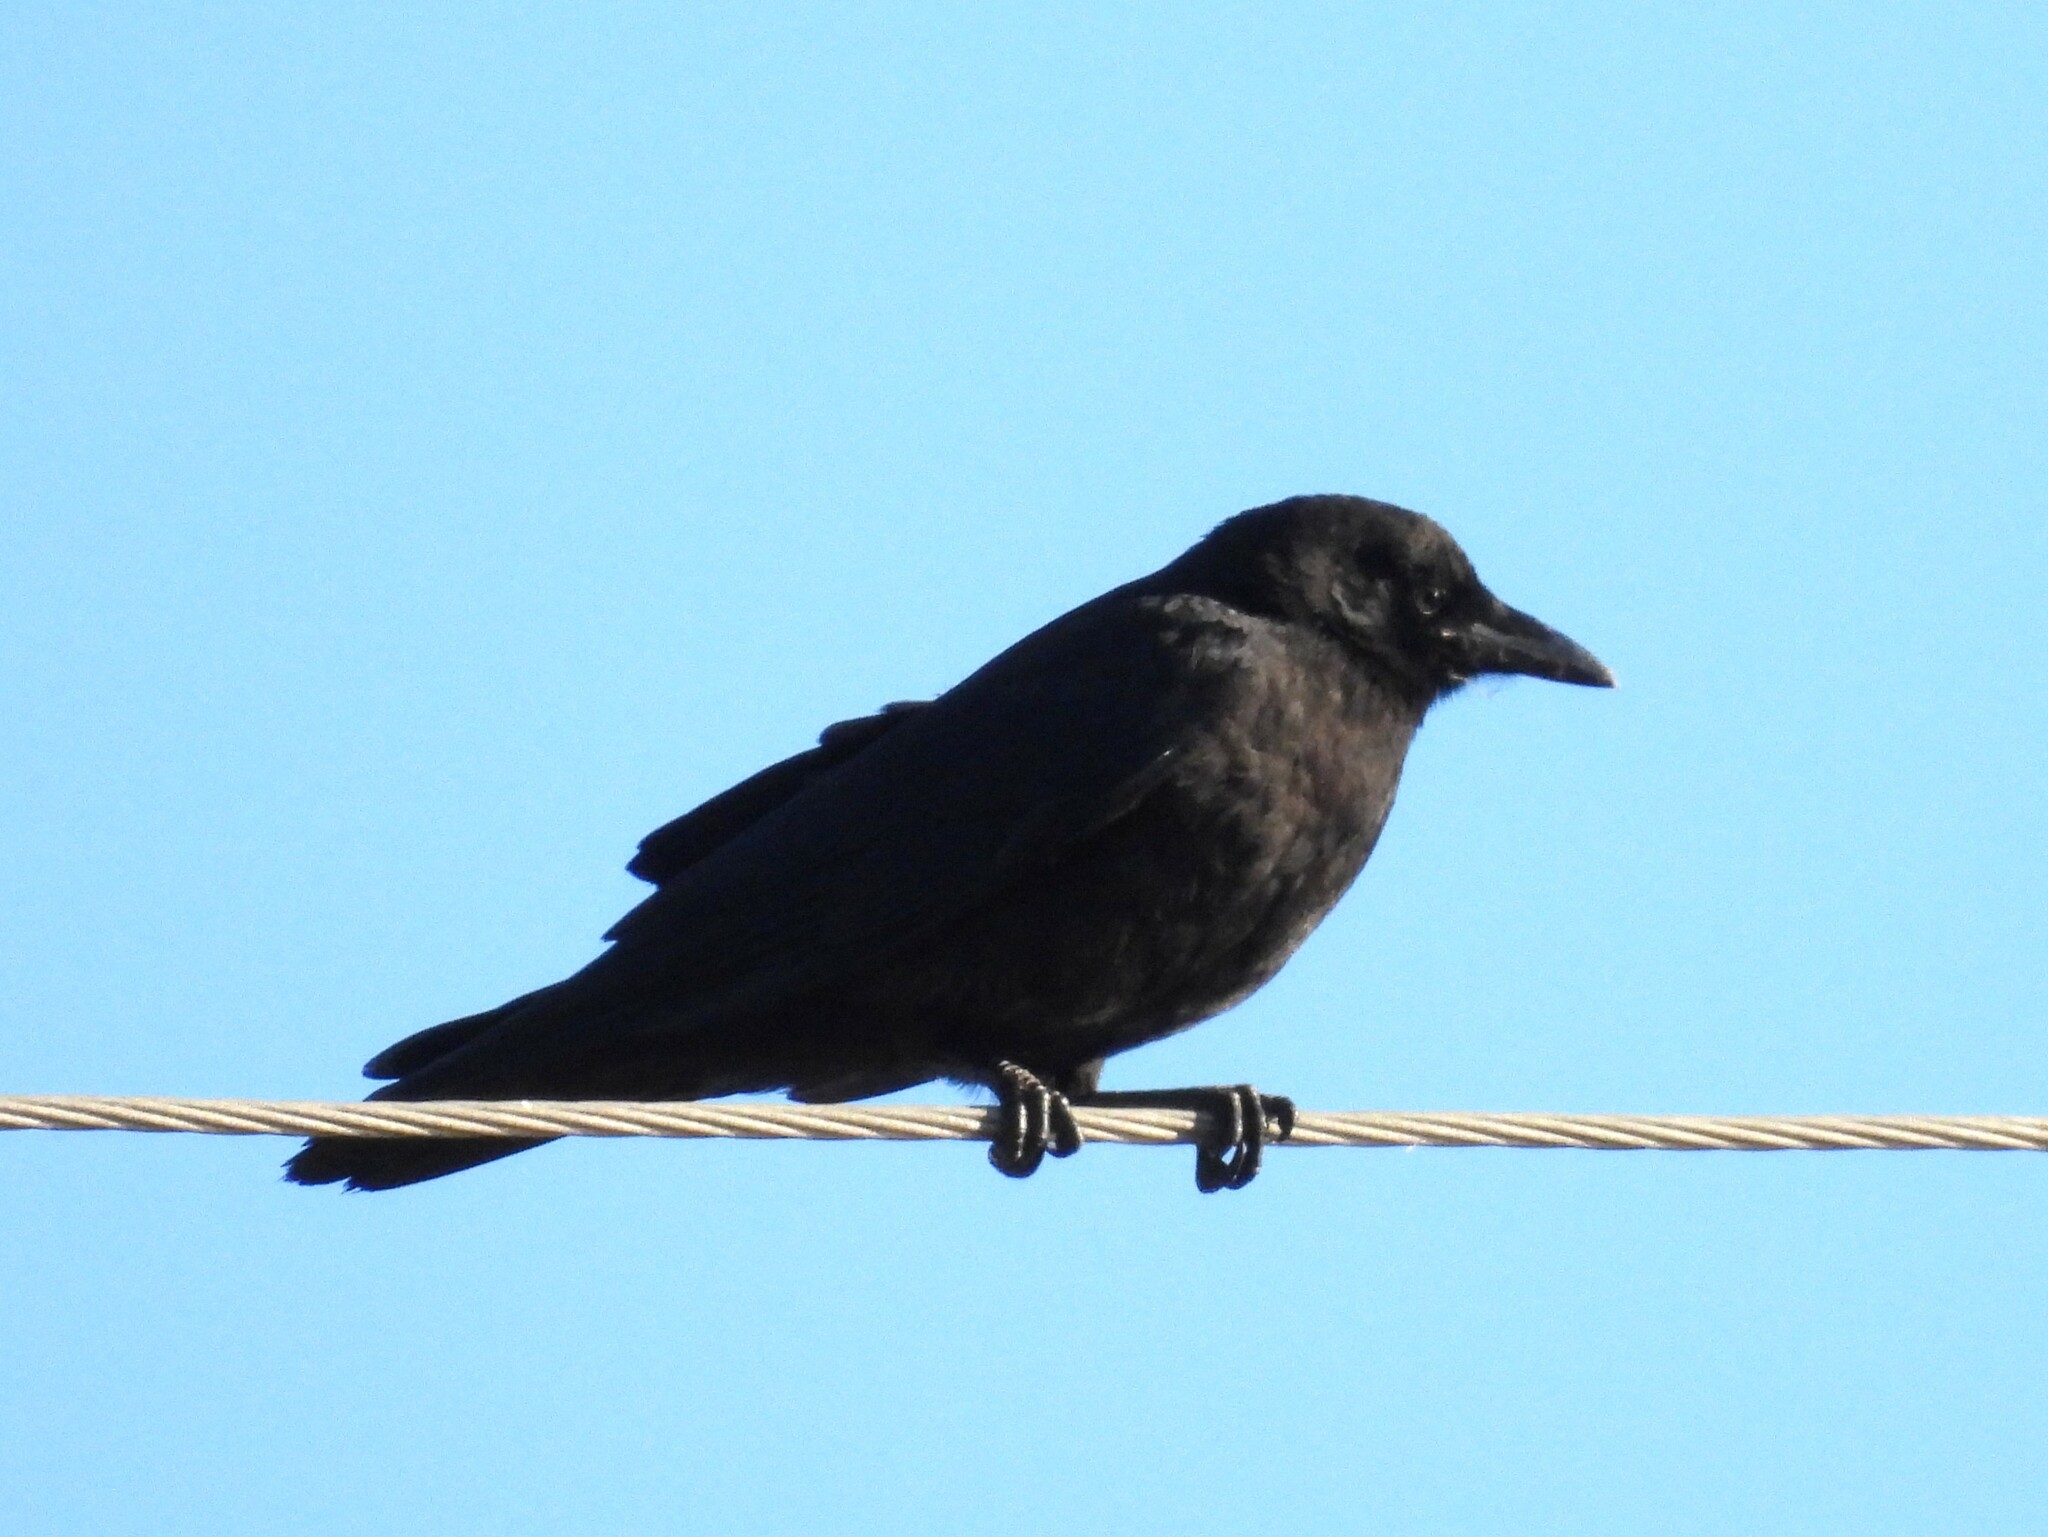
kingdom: Animalia
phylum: Chordata
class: Aves
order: Passeriformes
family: Corvidae
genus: Corvus
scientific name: Corvus brachyrhynchos
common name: American crow
